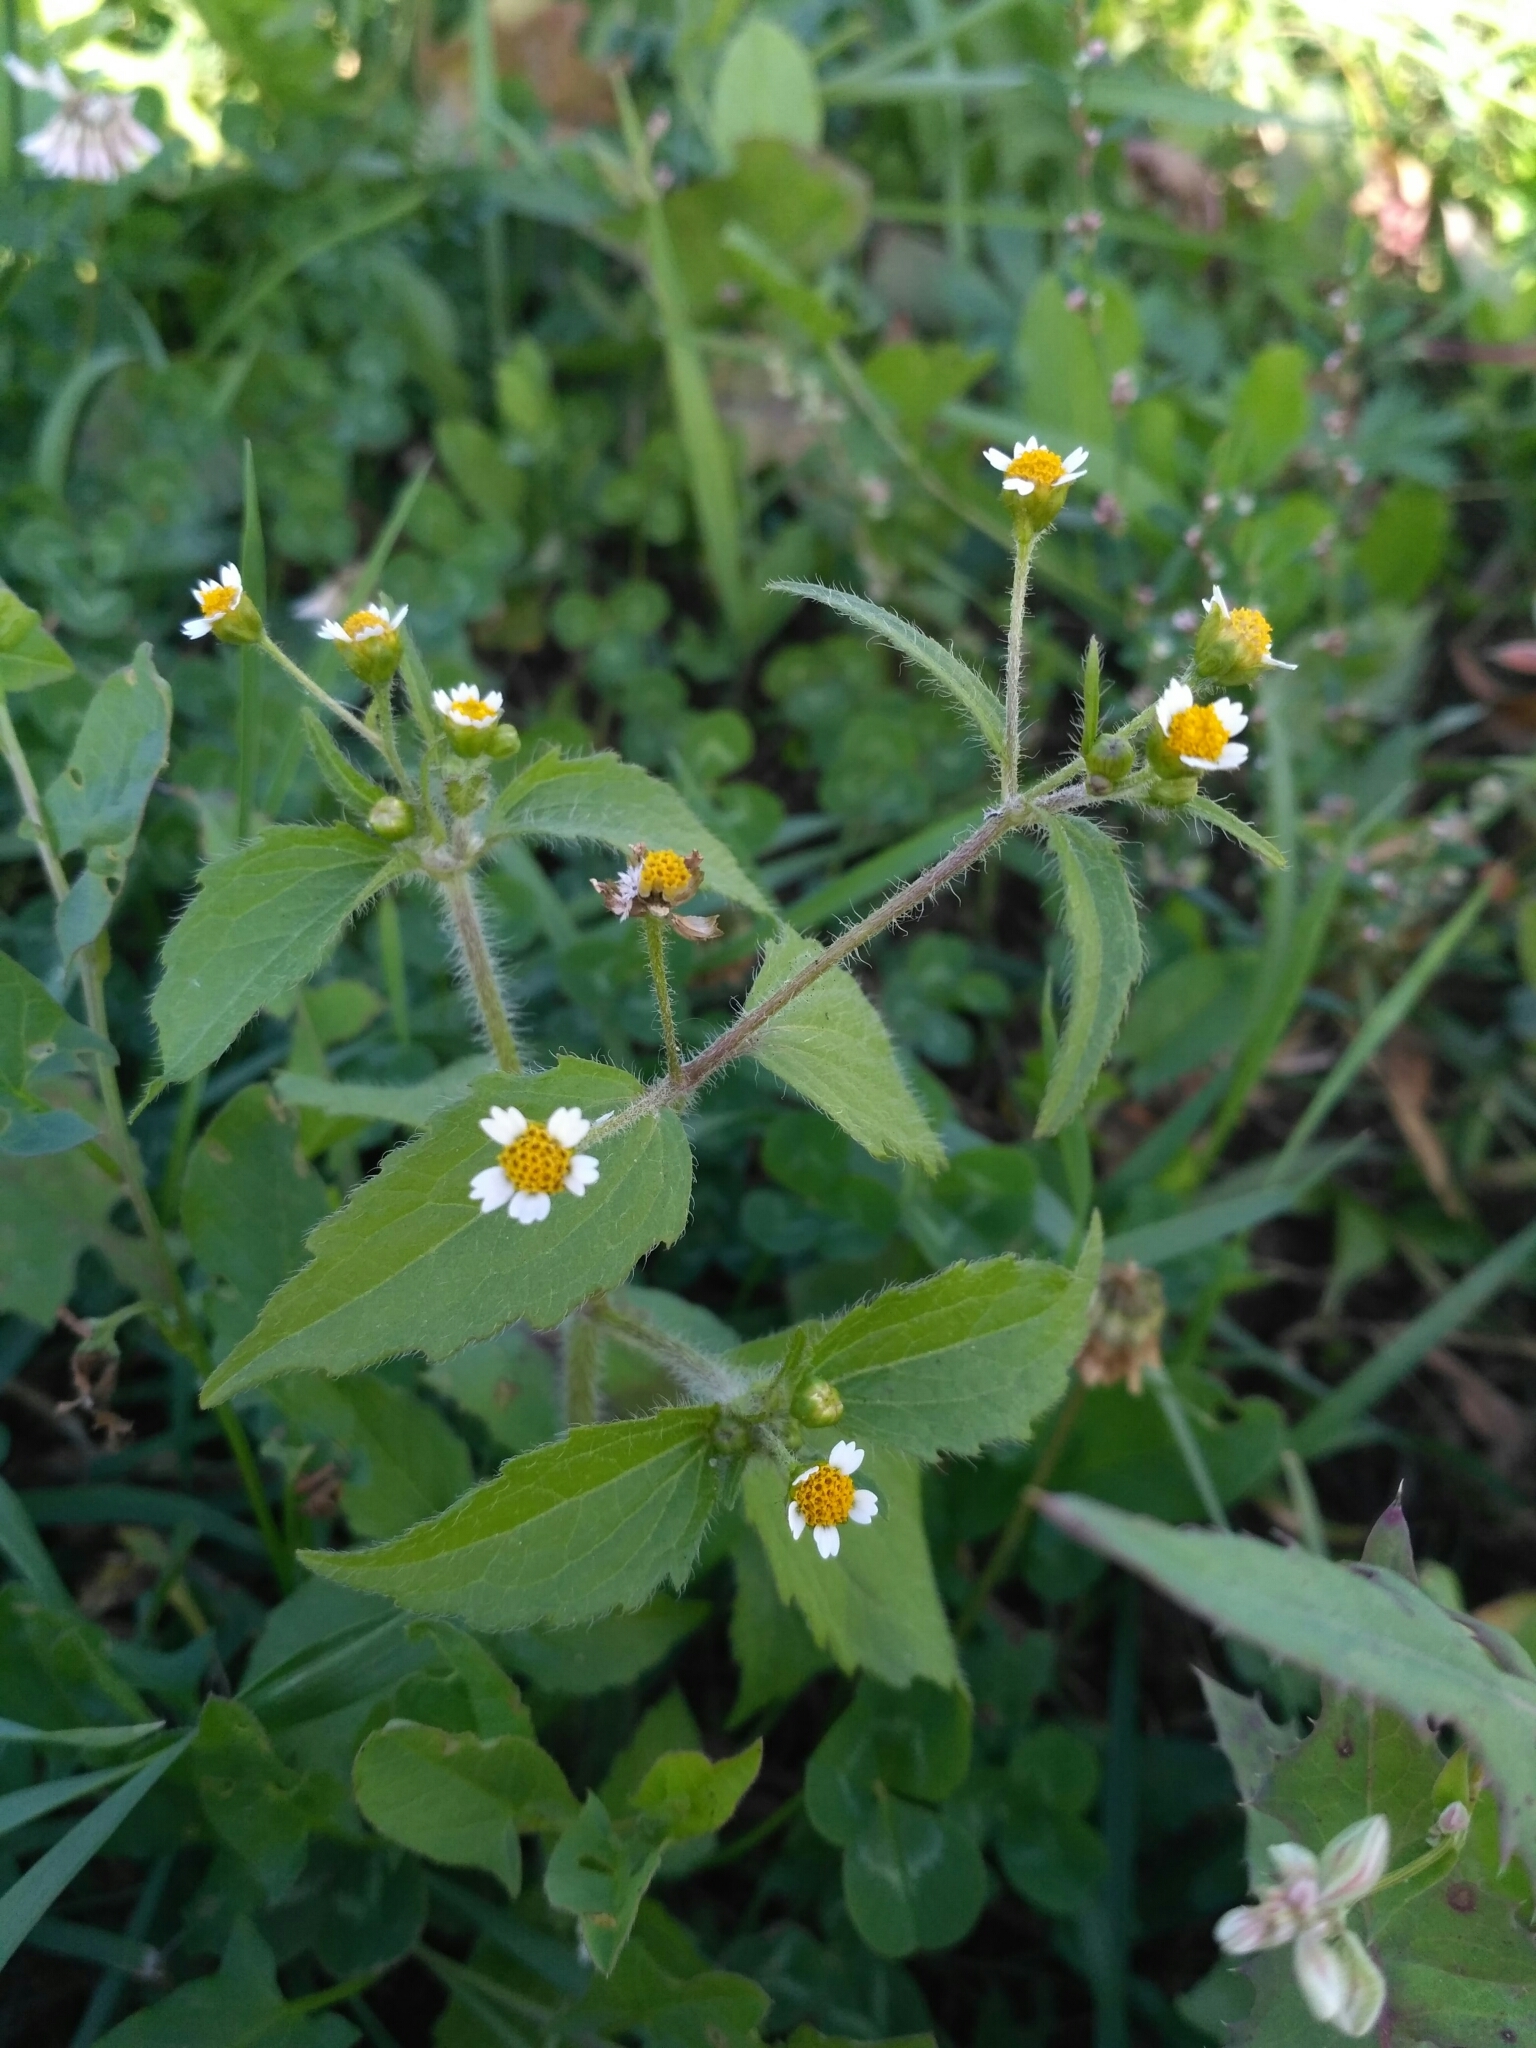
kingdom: Plantae
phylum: Tracheophyta
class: Magnoliopsida
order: Asterales
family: Asteraceae
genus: Galinsoga
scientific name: Galinsoga quadriradiata
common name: Shaggy soldier
